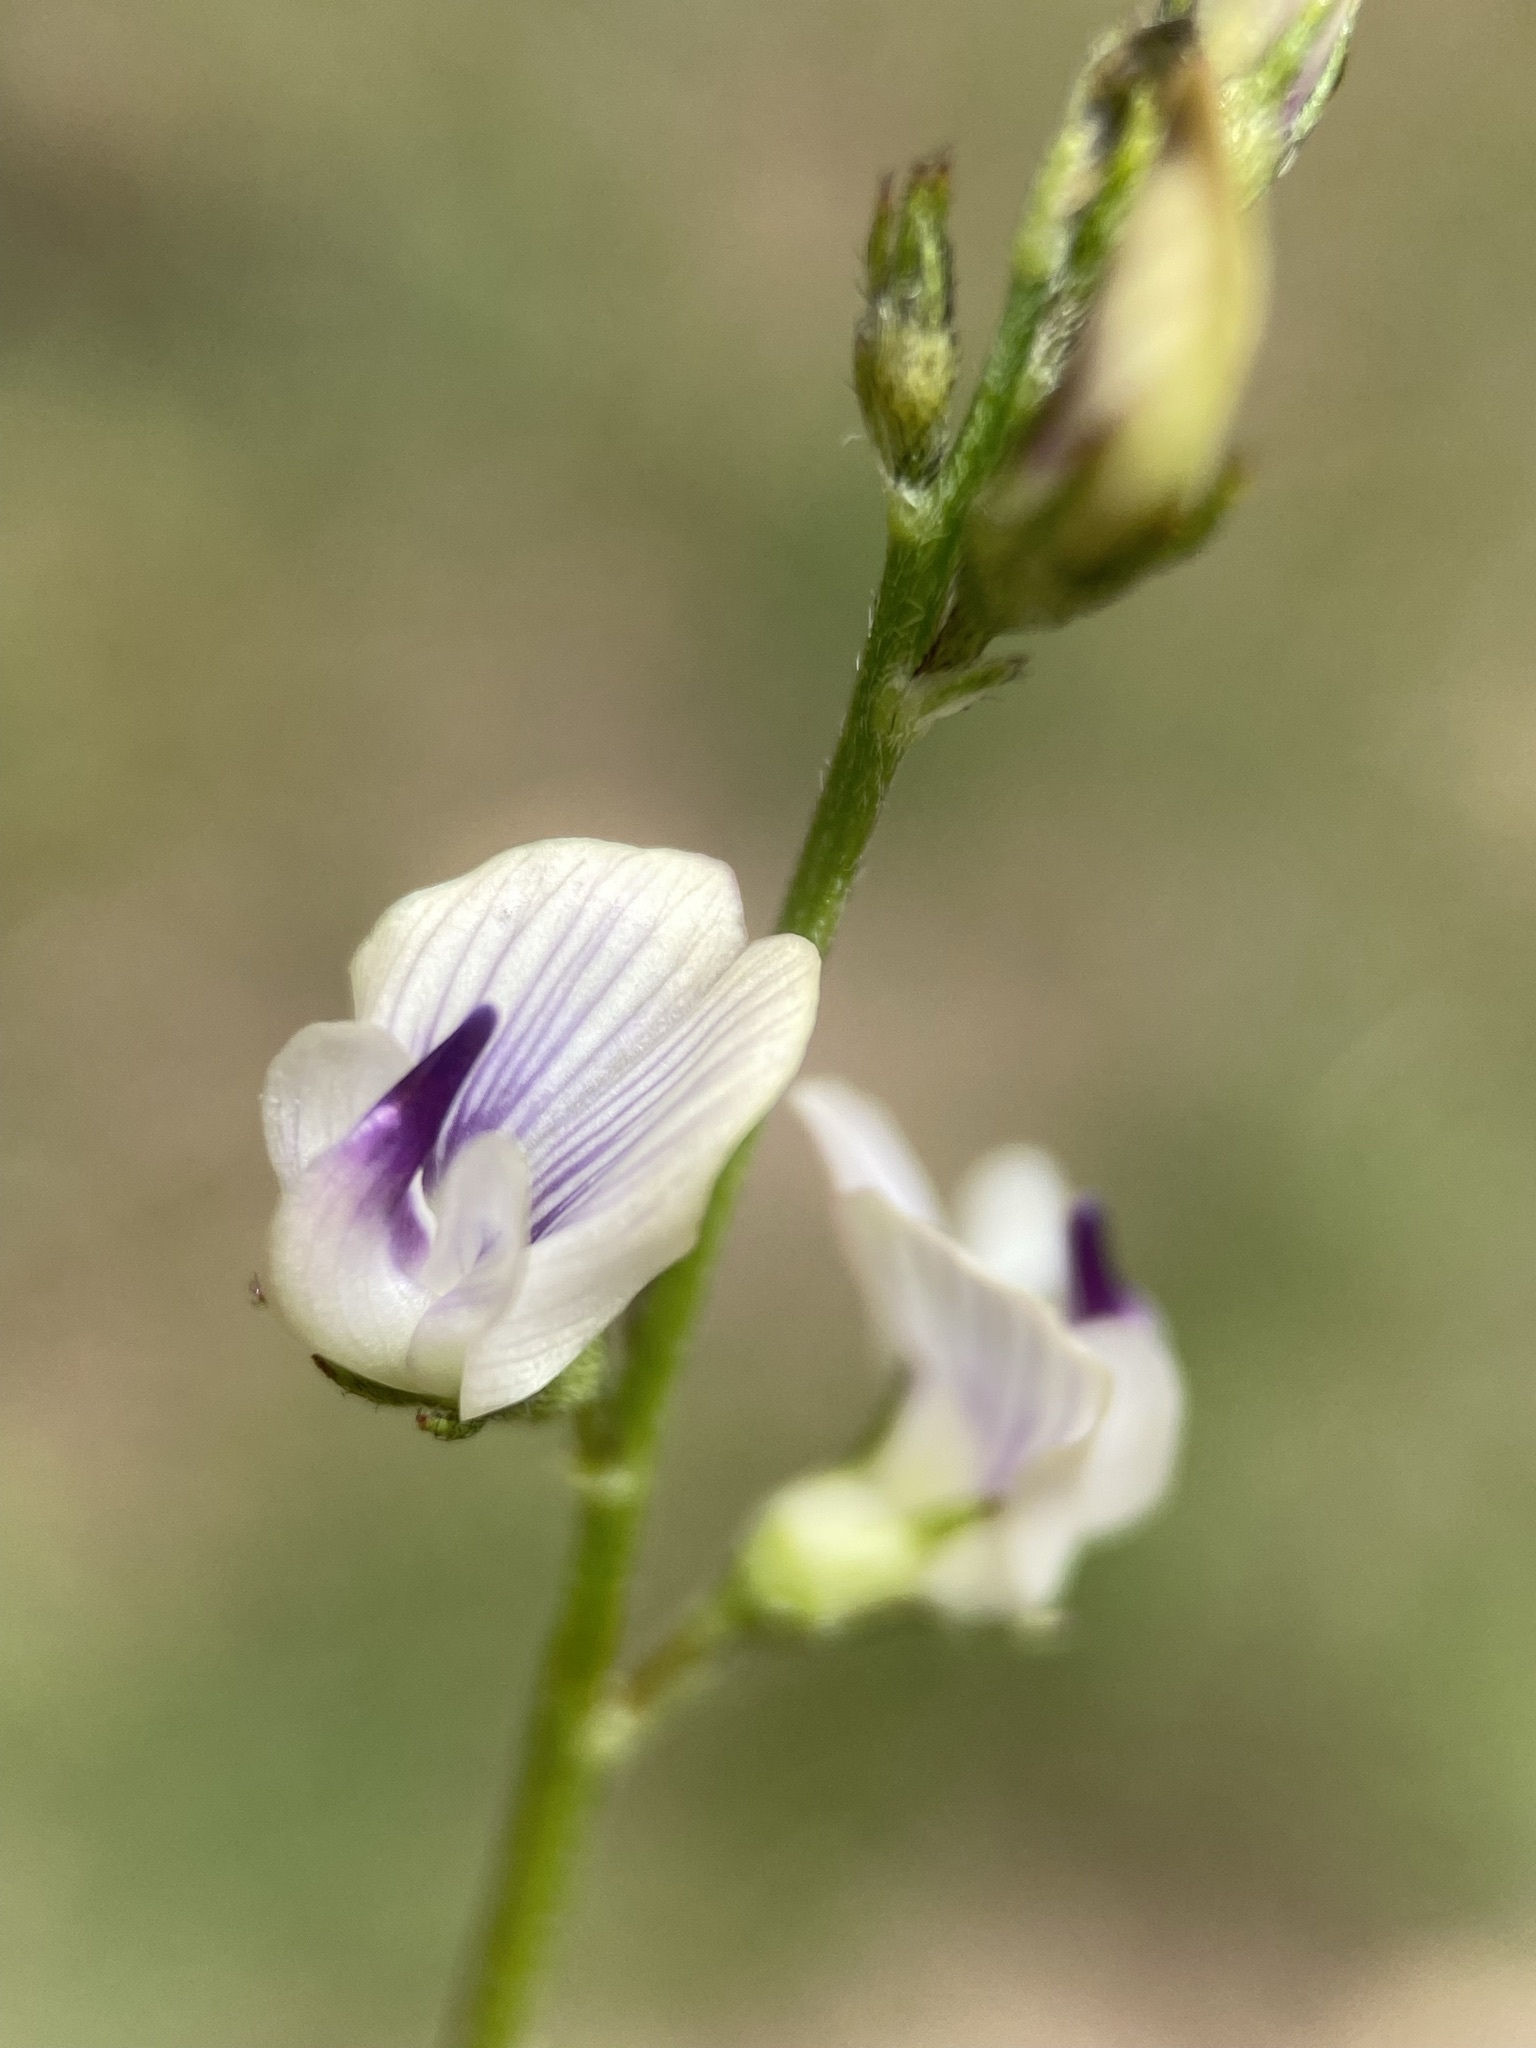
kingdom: Plantae
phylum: Tracheophyta
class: Magnoliopsida
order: Fabales
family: Fabaceae
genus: Astragalus
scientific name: Astragalus miser
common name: Timber milkvetch
